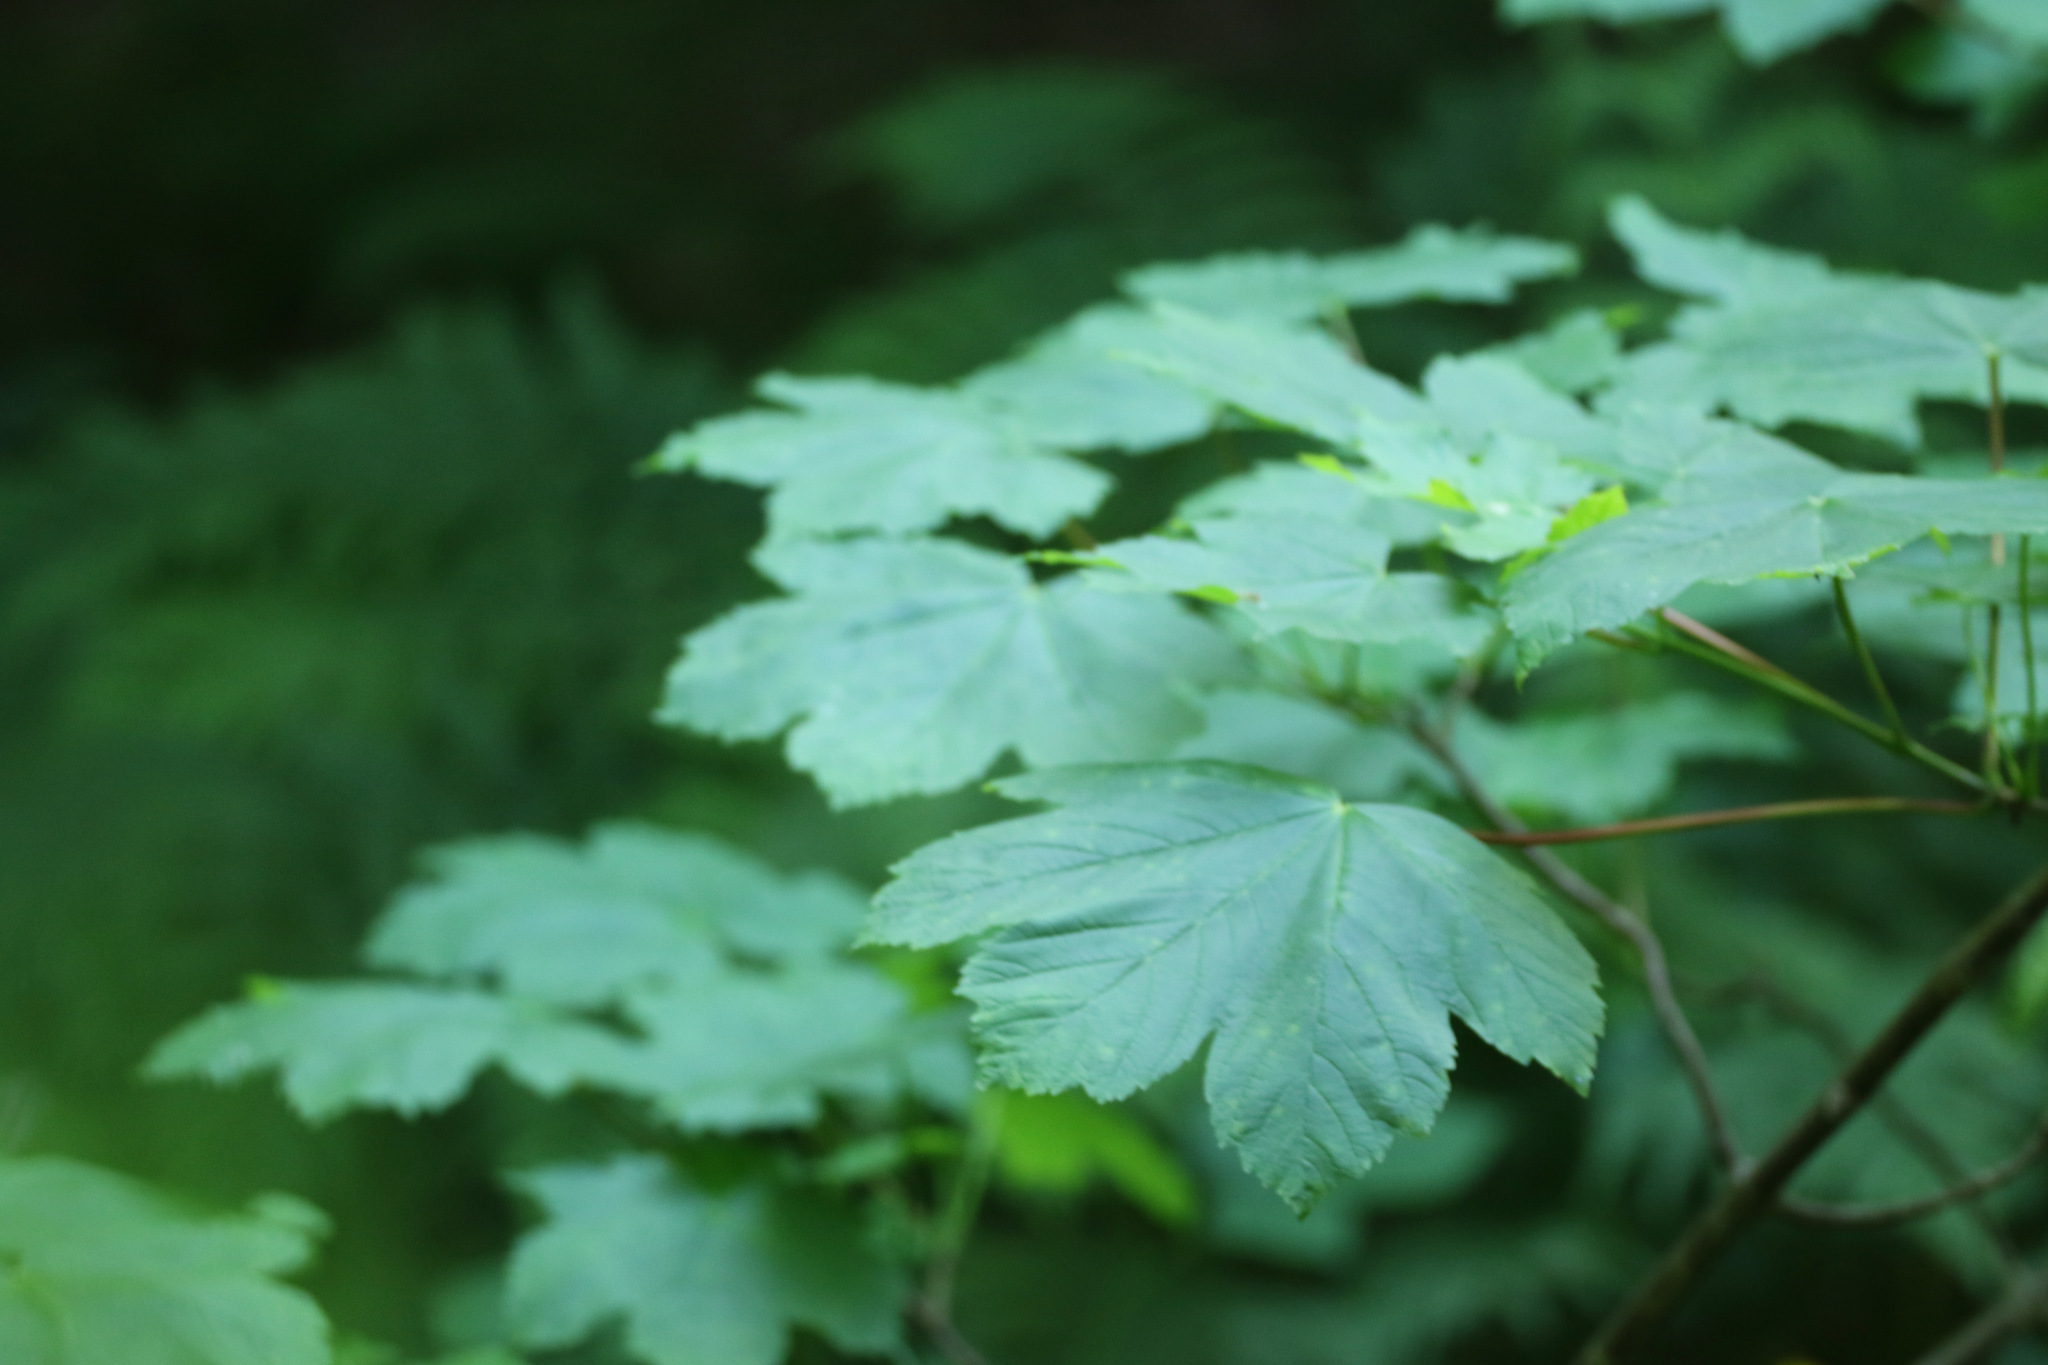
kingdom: Plantae
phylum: Tracheophyta
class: Magnoliopsida
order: Sapindales
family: Sapindaceae
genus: Acer
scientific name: Acer pseudoplatanus
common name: Sycamore
